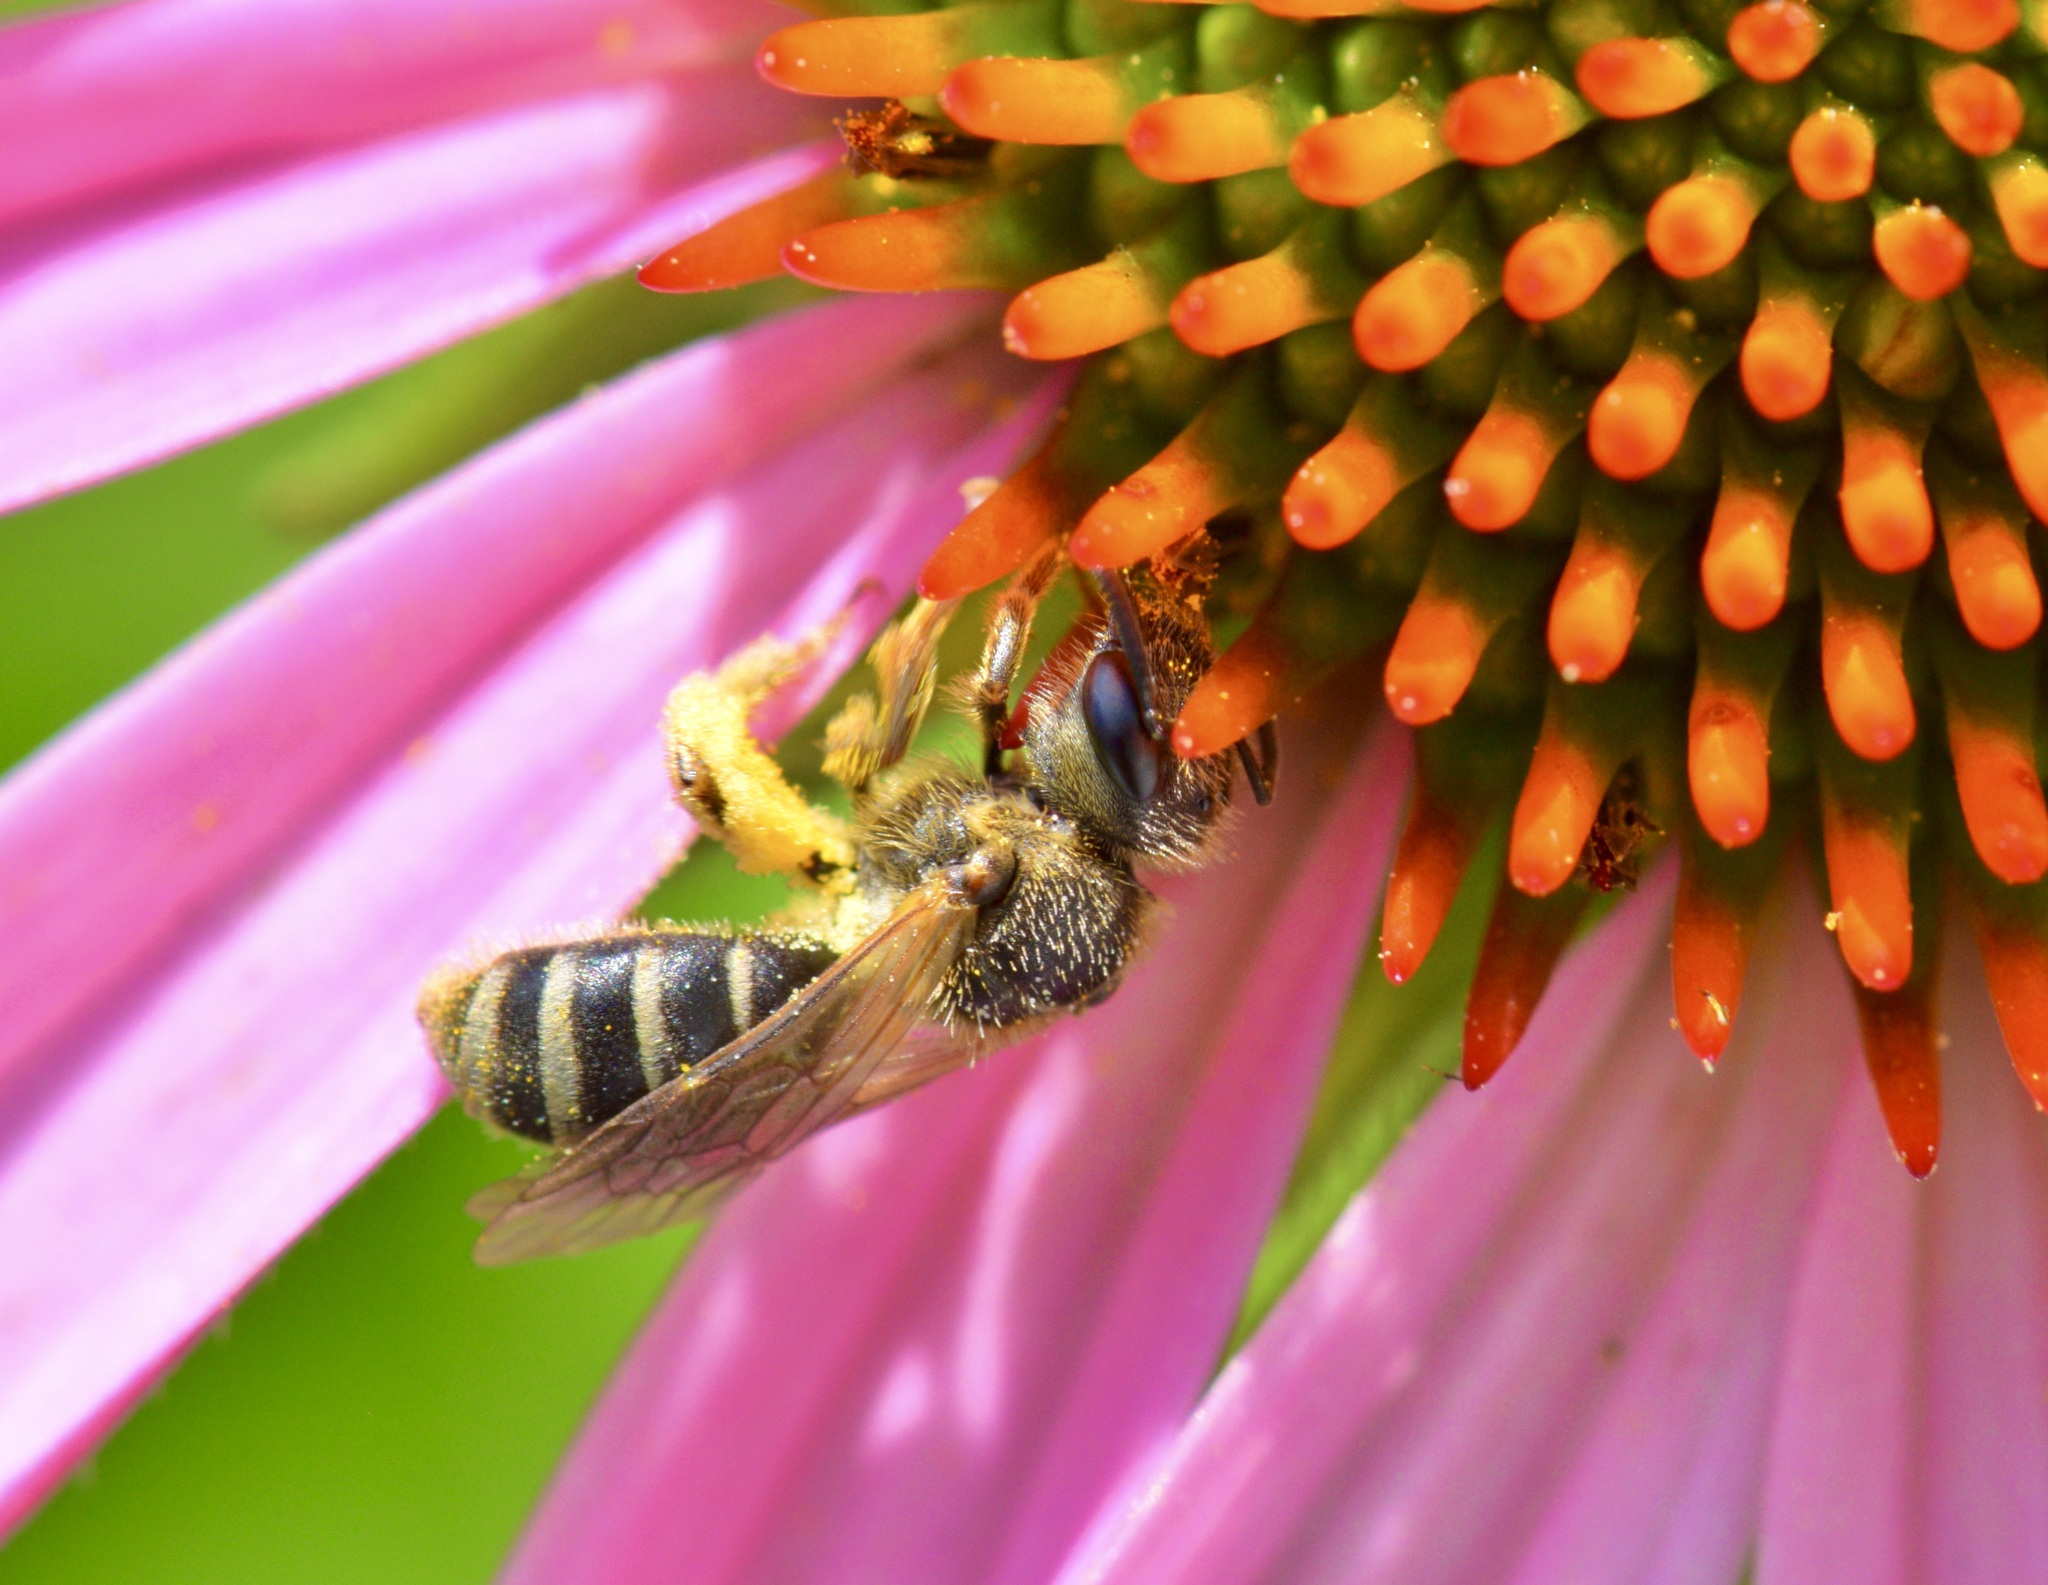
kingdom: Animalia
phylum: Arthropoda
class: Insecta
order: Hymenoptera
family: Halictidae
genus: Halictus
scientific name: Halictus ligatus
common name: Ligated furrow bee
